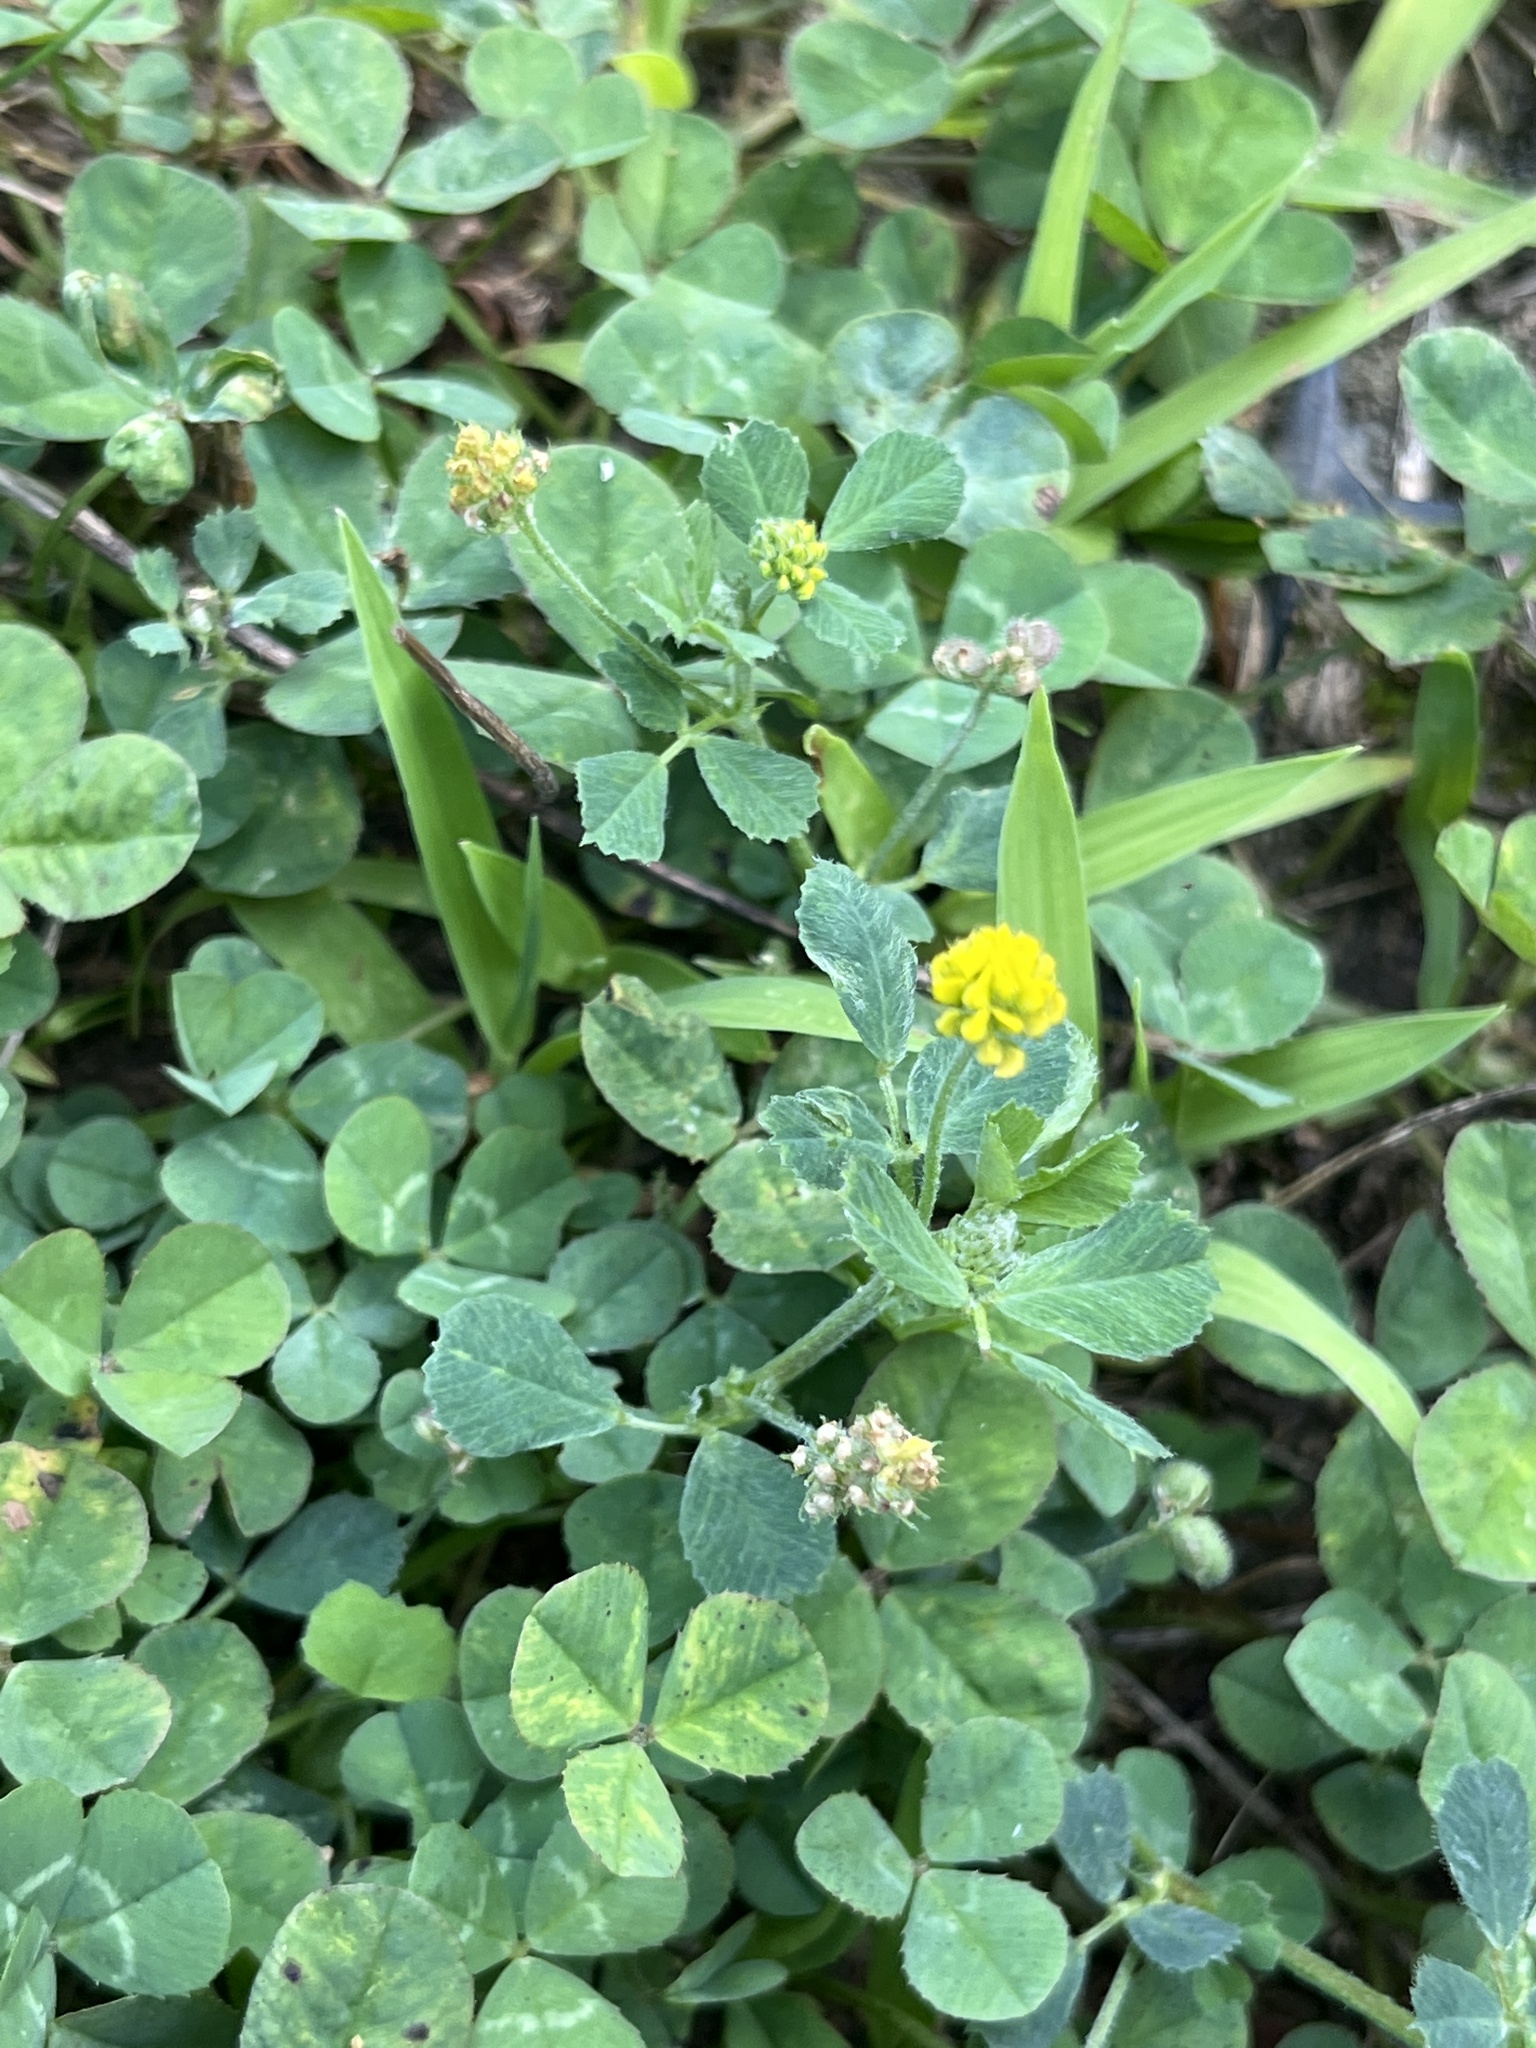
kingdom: Plantae
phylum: Tracheophyta
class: Magnoliopsida
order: Fabales
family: Fabaceae
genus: Medicago
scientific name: Medicago lupulina
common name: Black medick
